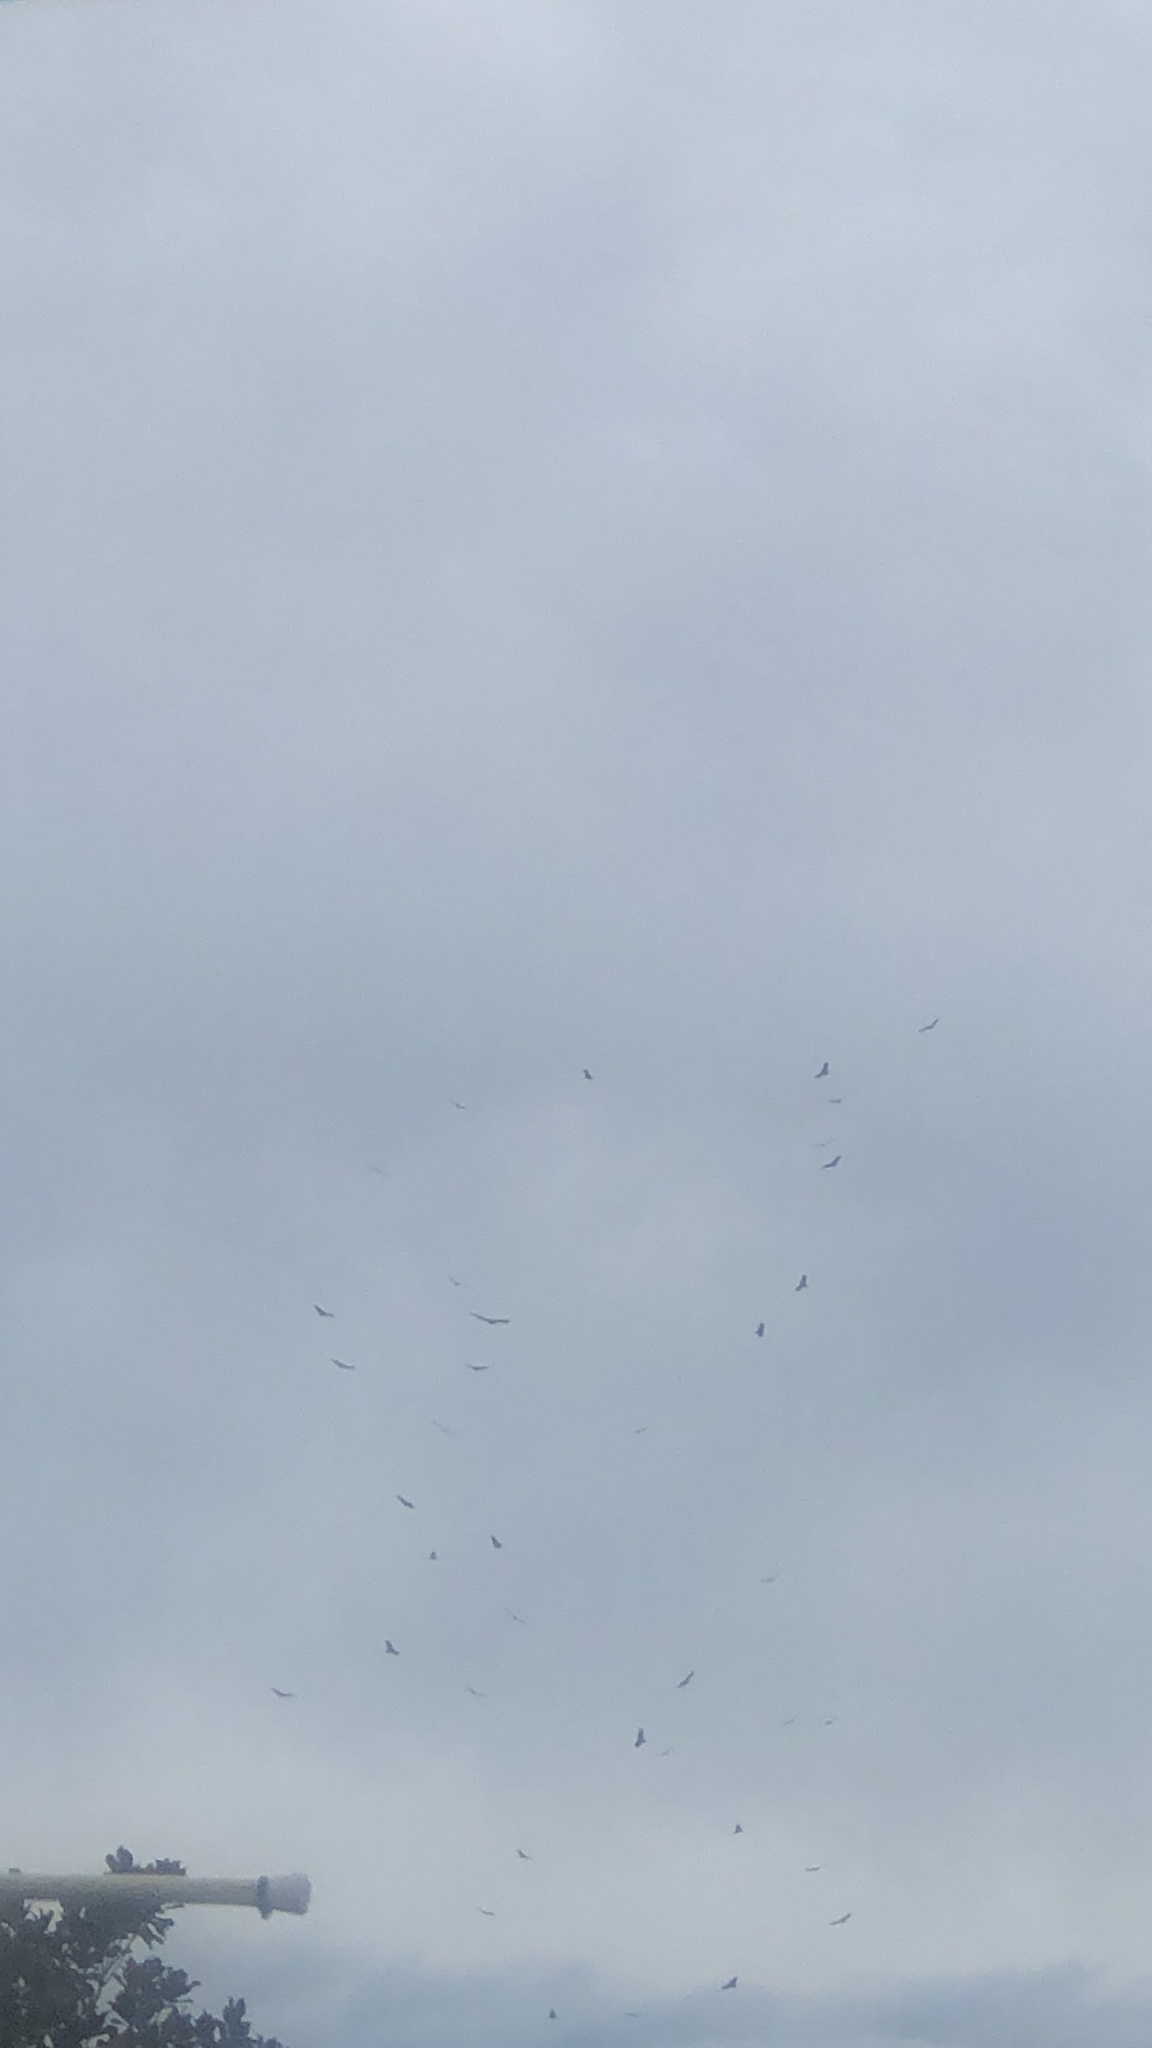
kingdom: Animalia
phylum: Chordata
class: Aves
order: Accipitriformes
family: Cathartidae
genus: Cathartes
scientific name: Cathartes aura
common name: Turkey vulture
